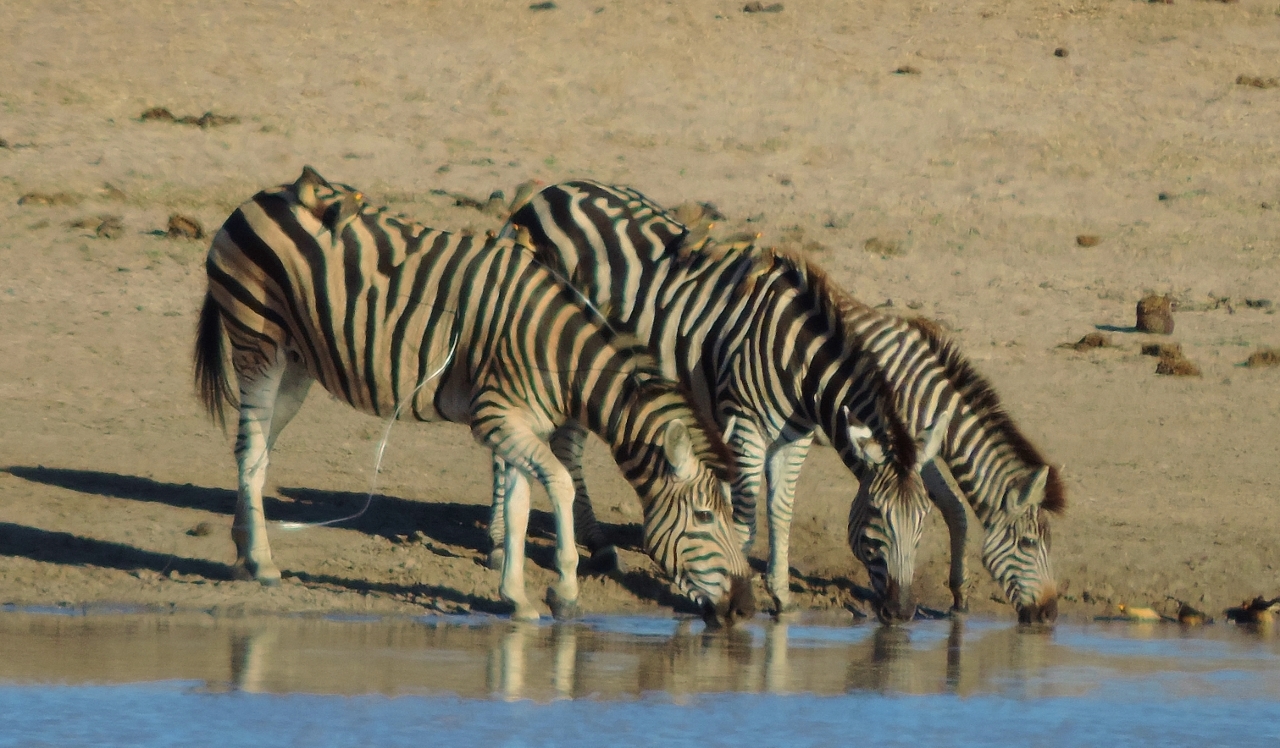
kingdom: Animalia
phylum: Chordata
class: Aves
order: Passeriformes
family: Buphagidae
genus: Buphagus
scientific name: Buphagus africanus
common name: Yellow-billed oxpecker
